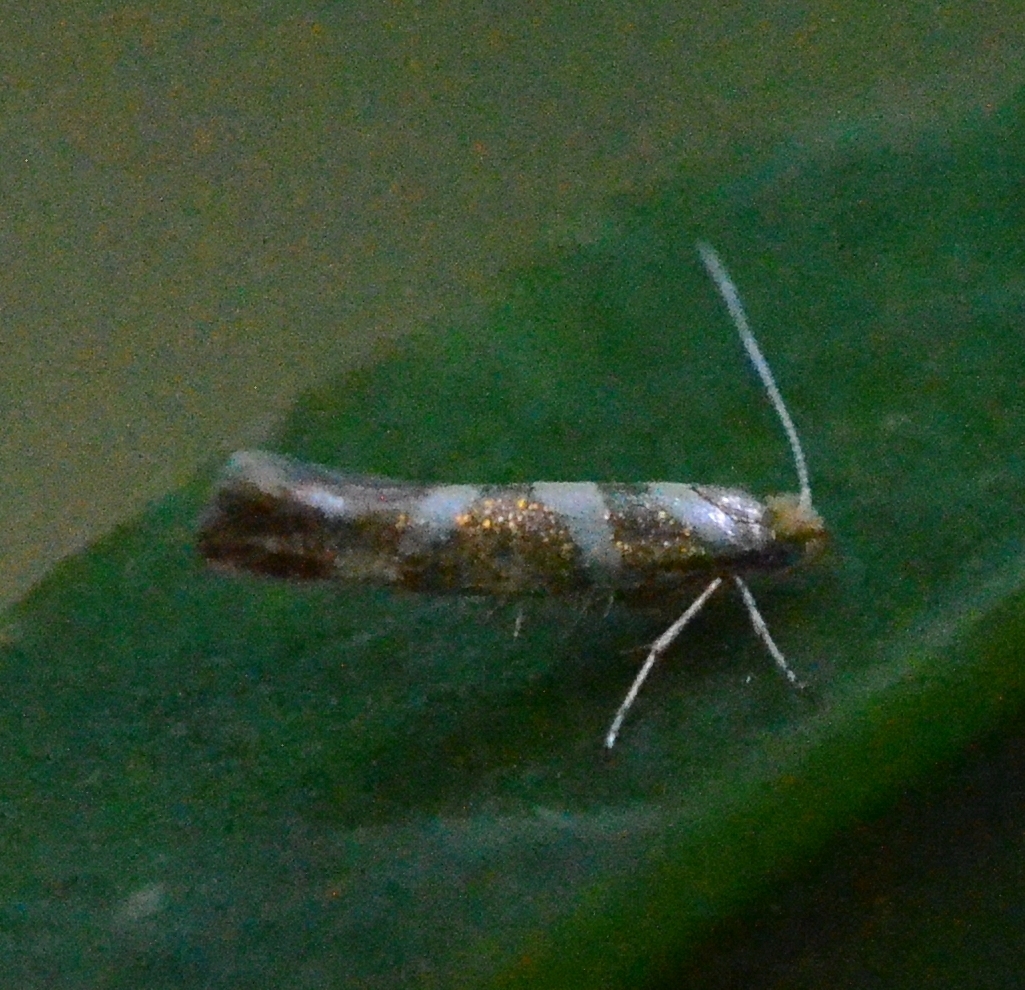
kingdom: Animalia
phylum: Arthropoda
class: Insecta
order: Lepidoptera
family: Argyresthiidae
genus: Argyresthia
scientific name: Argyresthia goedartella
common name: Golden argent
